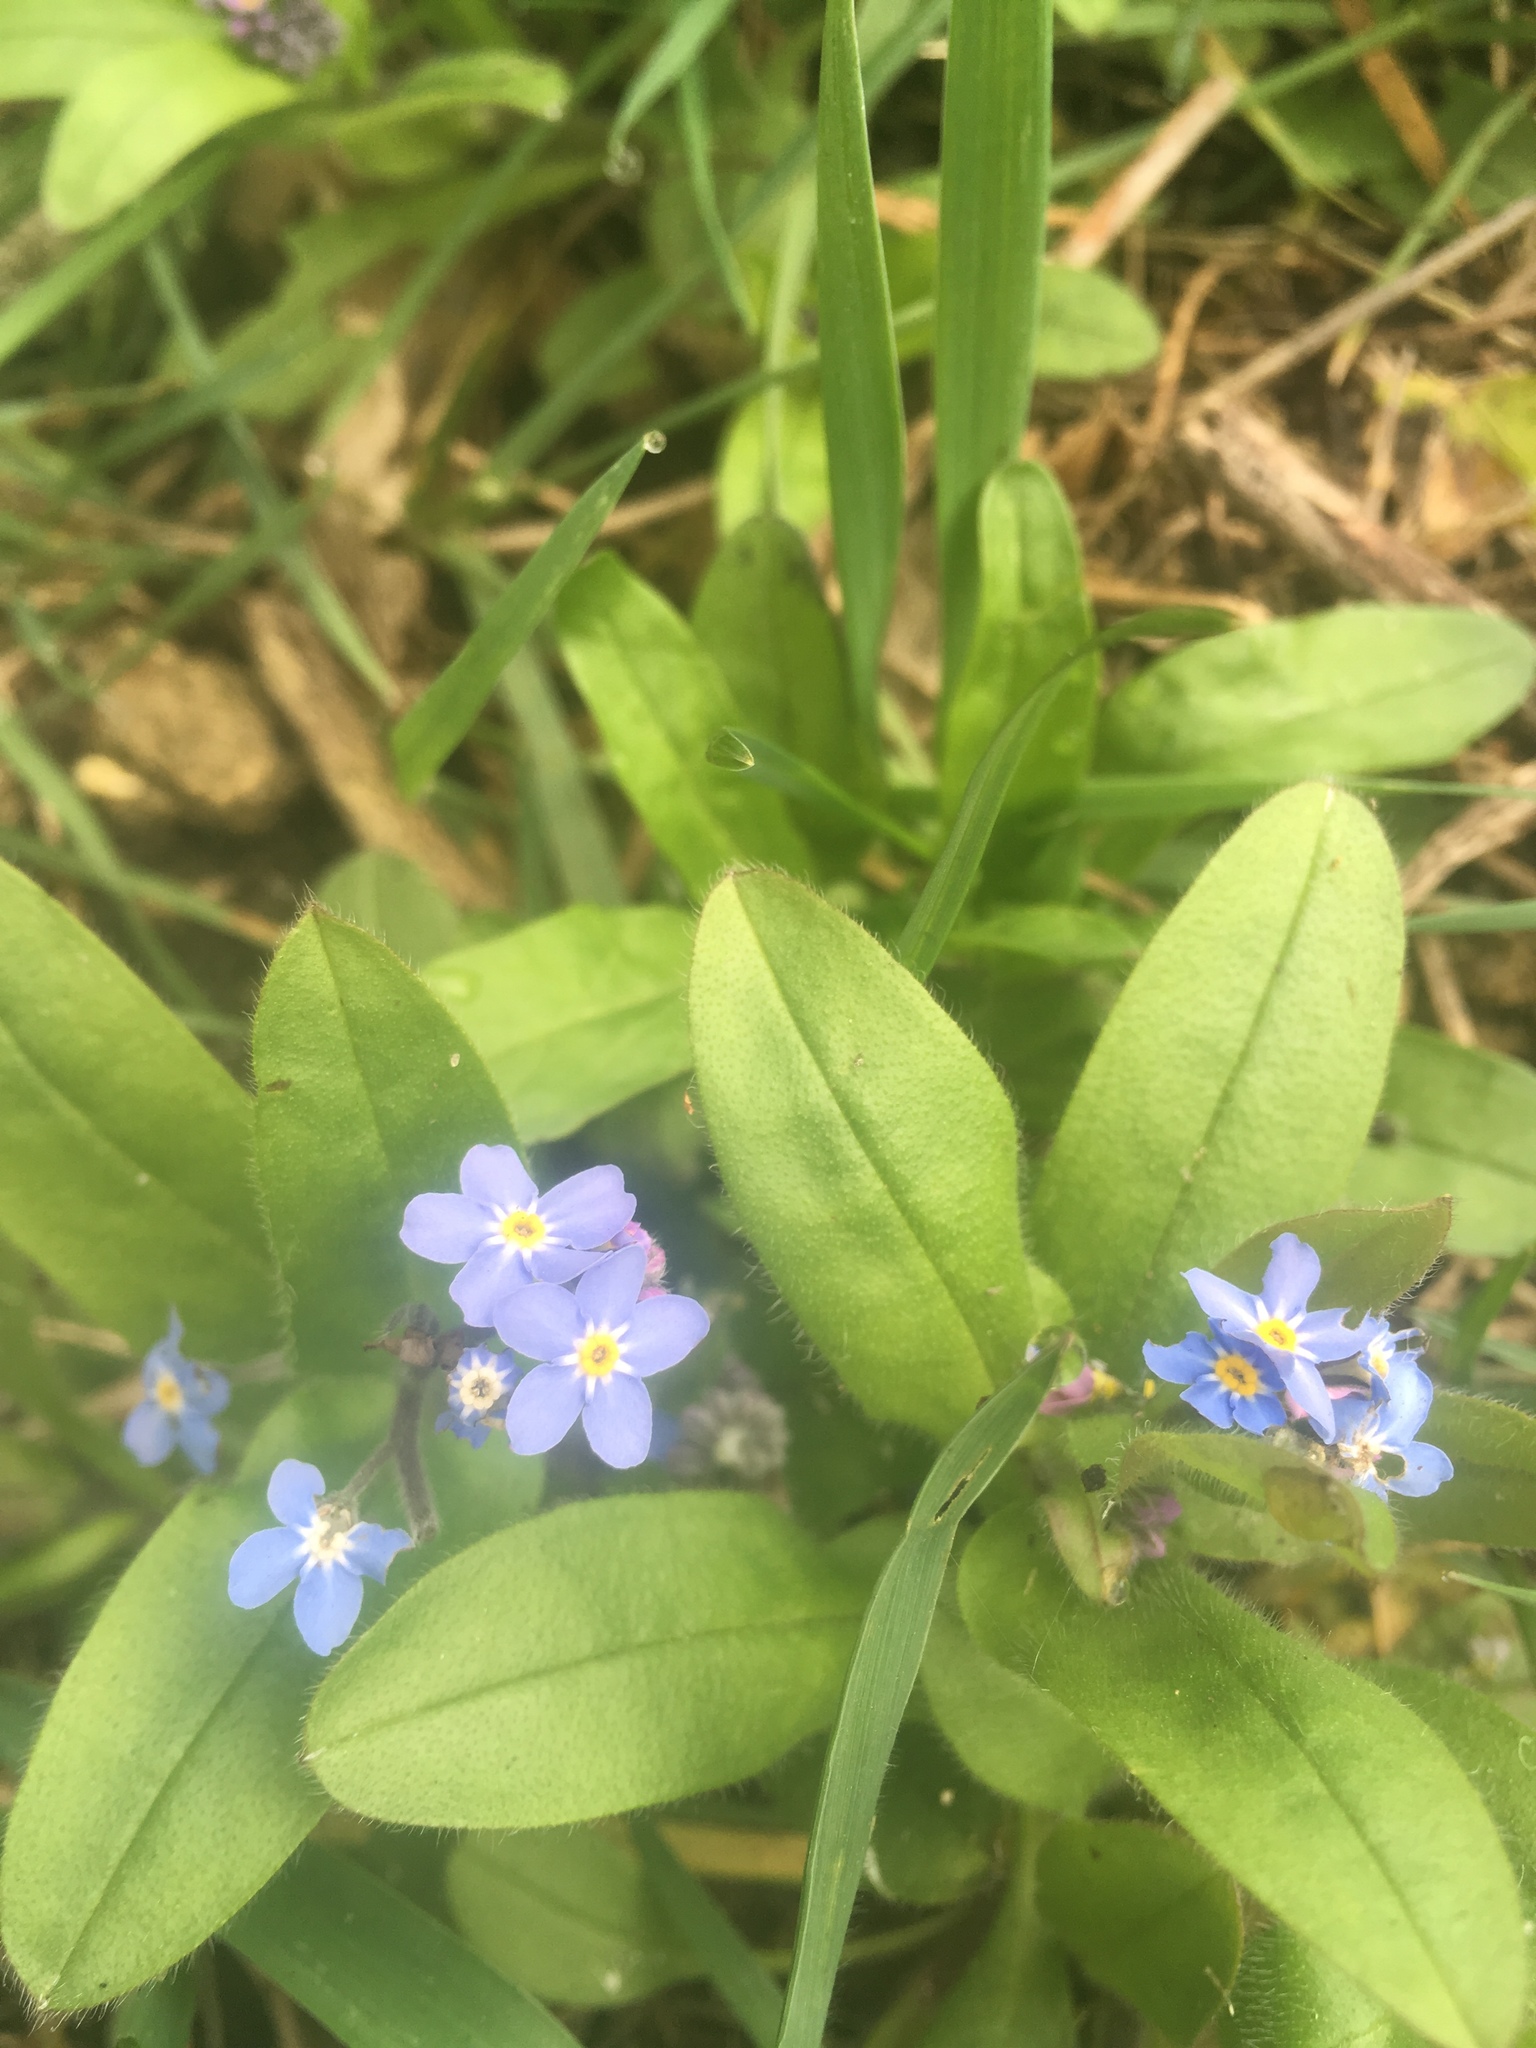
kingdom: Plantae
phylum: Tracheophyta
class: Magnoliopsida
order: Boraginales
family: Boraginaceae
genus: Myosotis
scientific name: Myosotis sylvatica
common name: Wood forget-me-not
